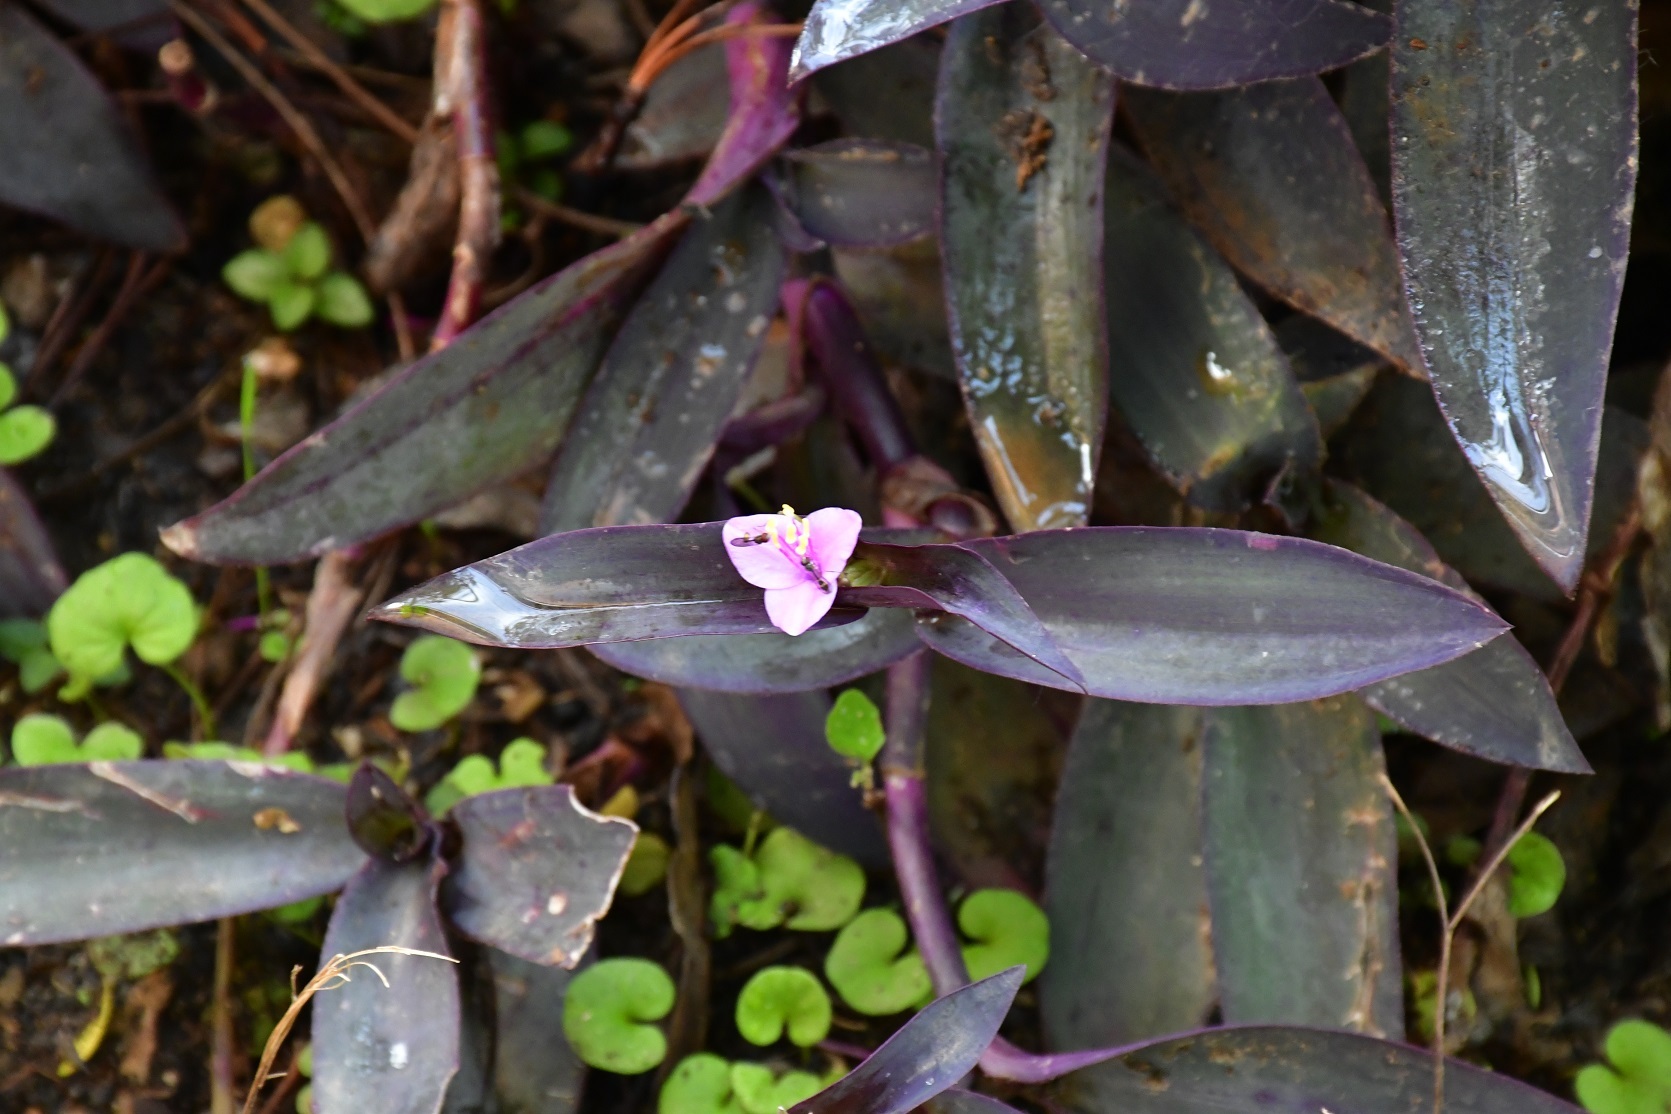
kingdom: Plantae
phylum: Tracheophyta
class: Liliopsida
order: Commelinales
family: Commelinaceae
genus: Tradescantia
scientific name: Tradescantia pallida
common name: Purpleheart
